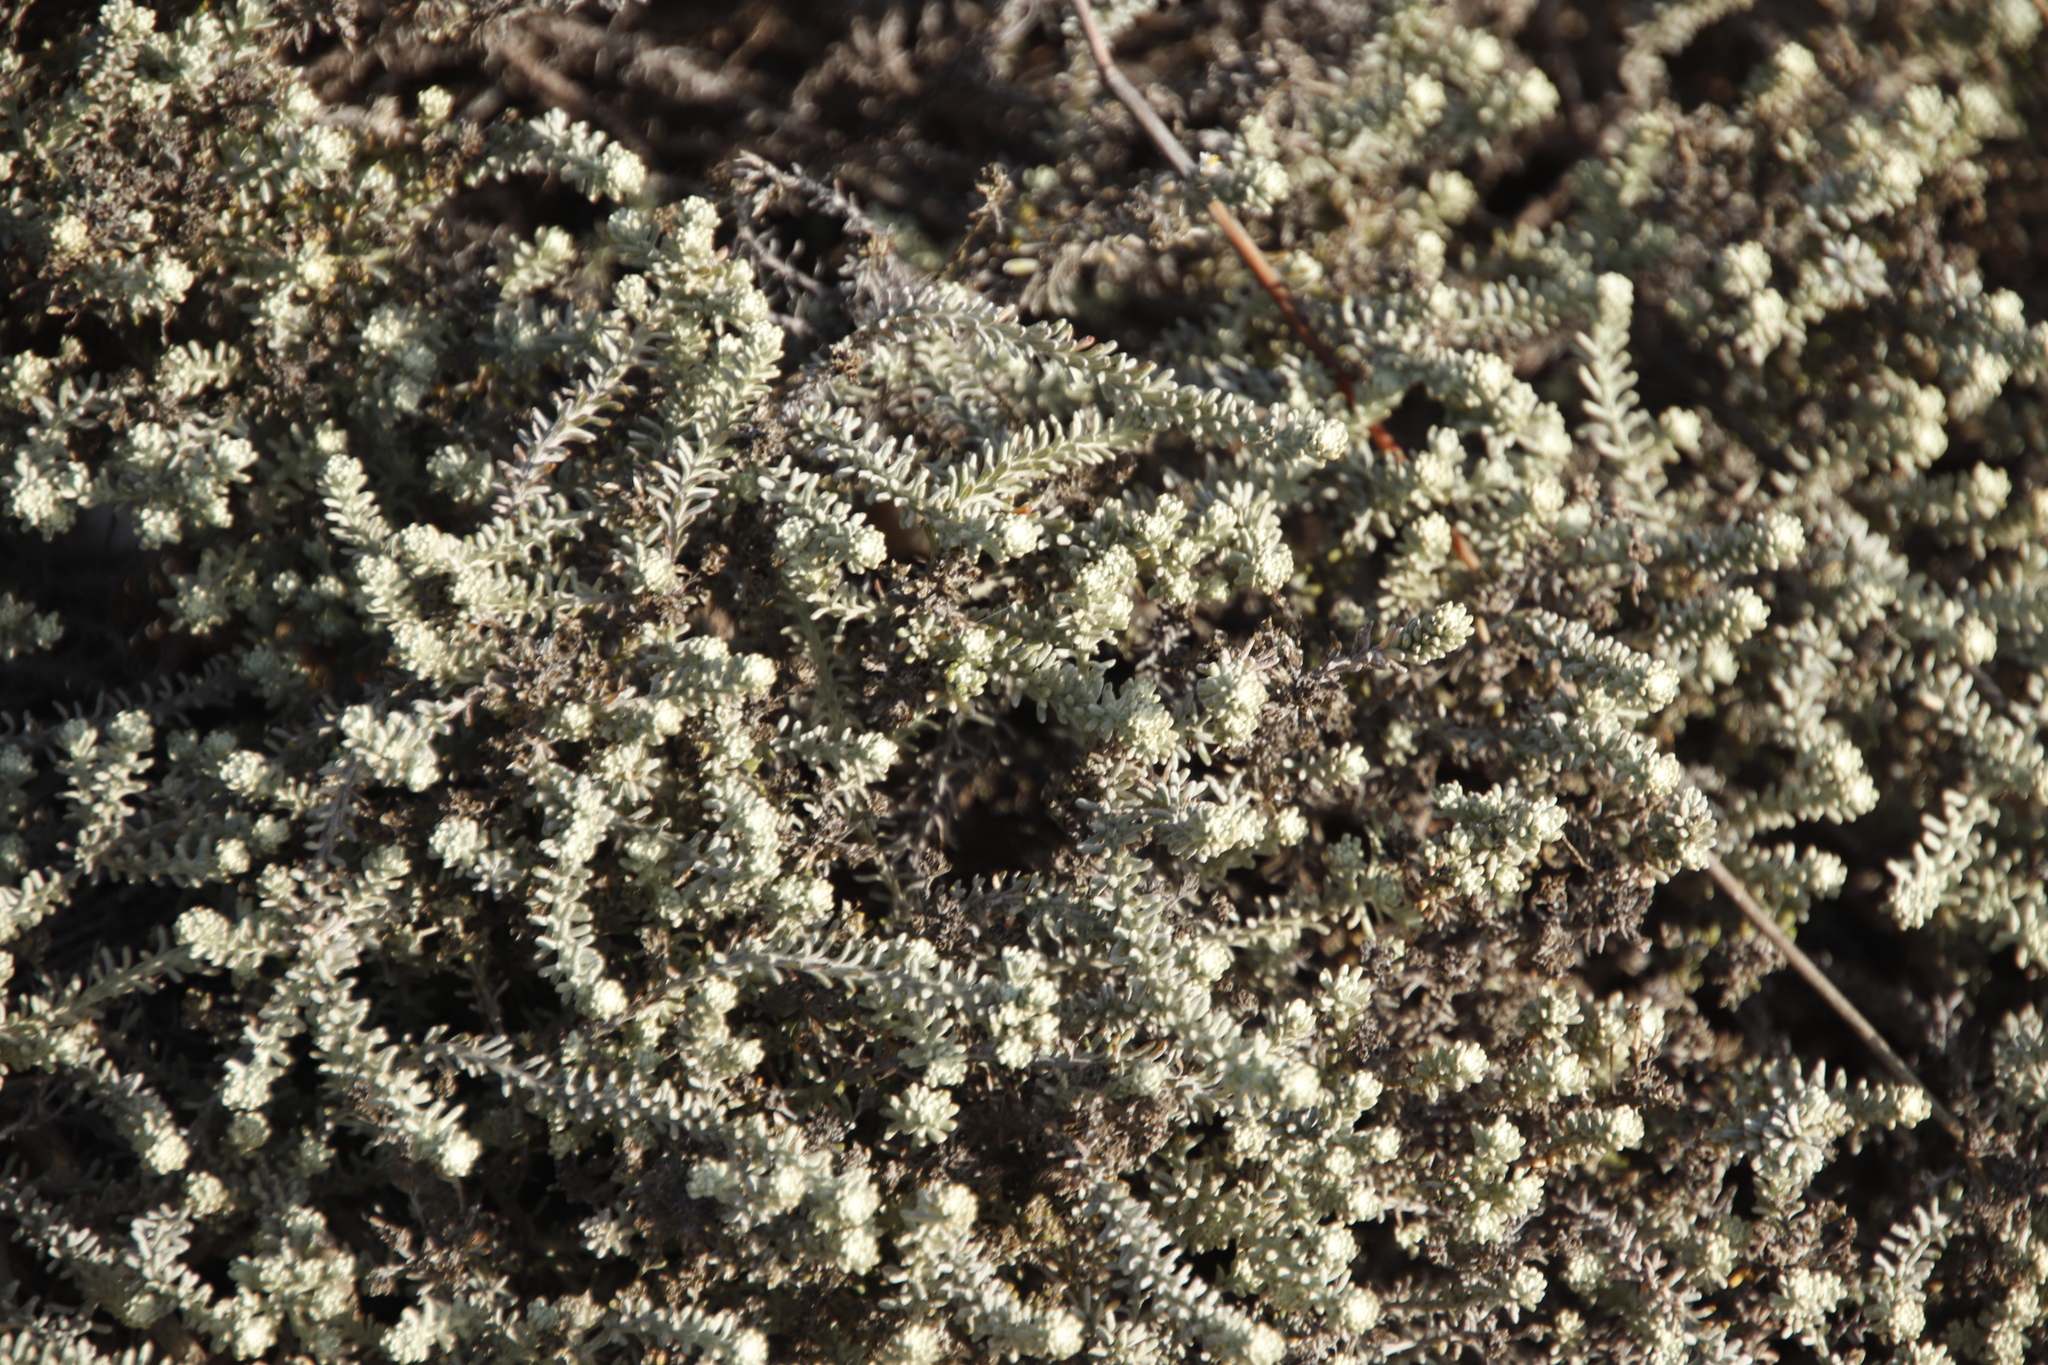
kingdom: Plantae
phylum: Tracheophyta
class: Magnoliopsida
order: Asterales
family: Asteraceae
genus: Helichrysum
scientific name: Helichrysum niveum
